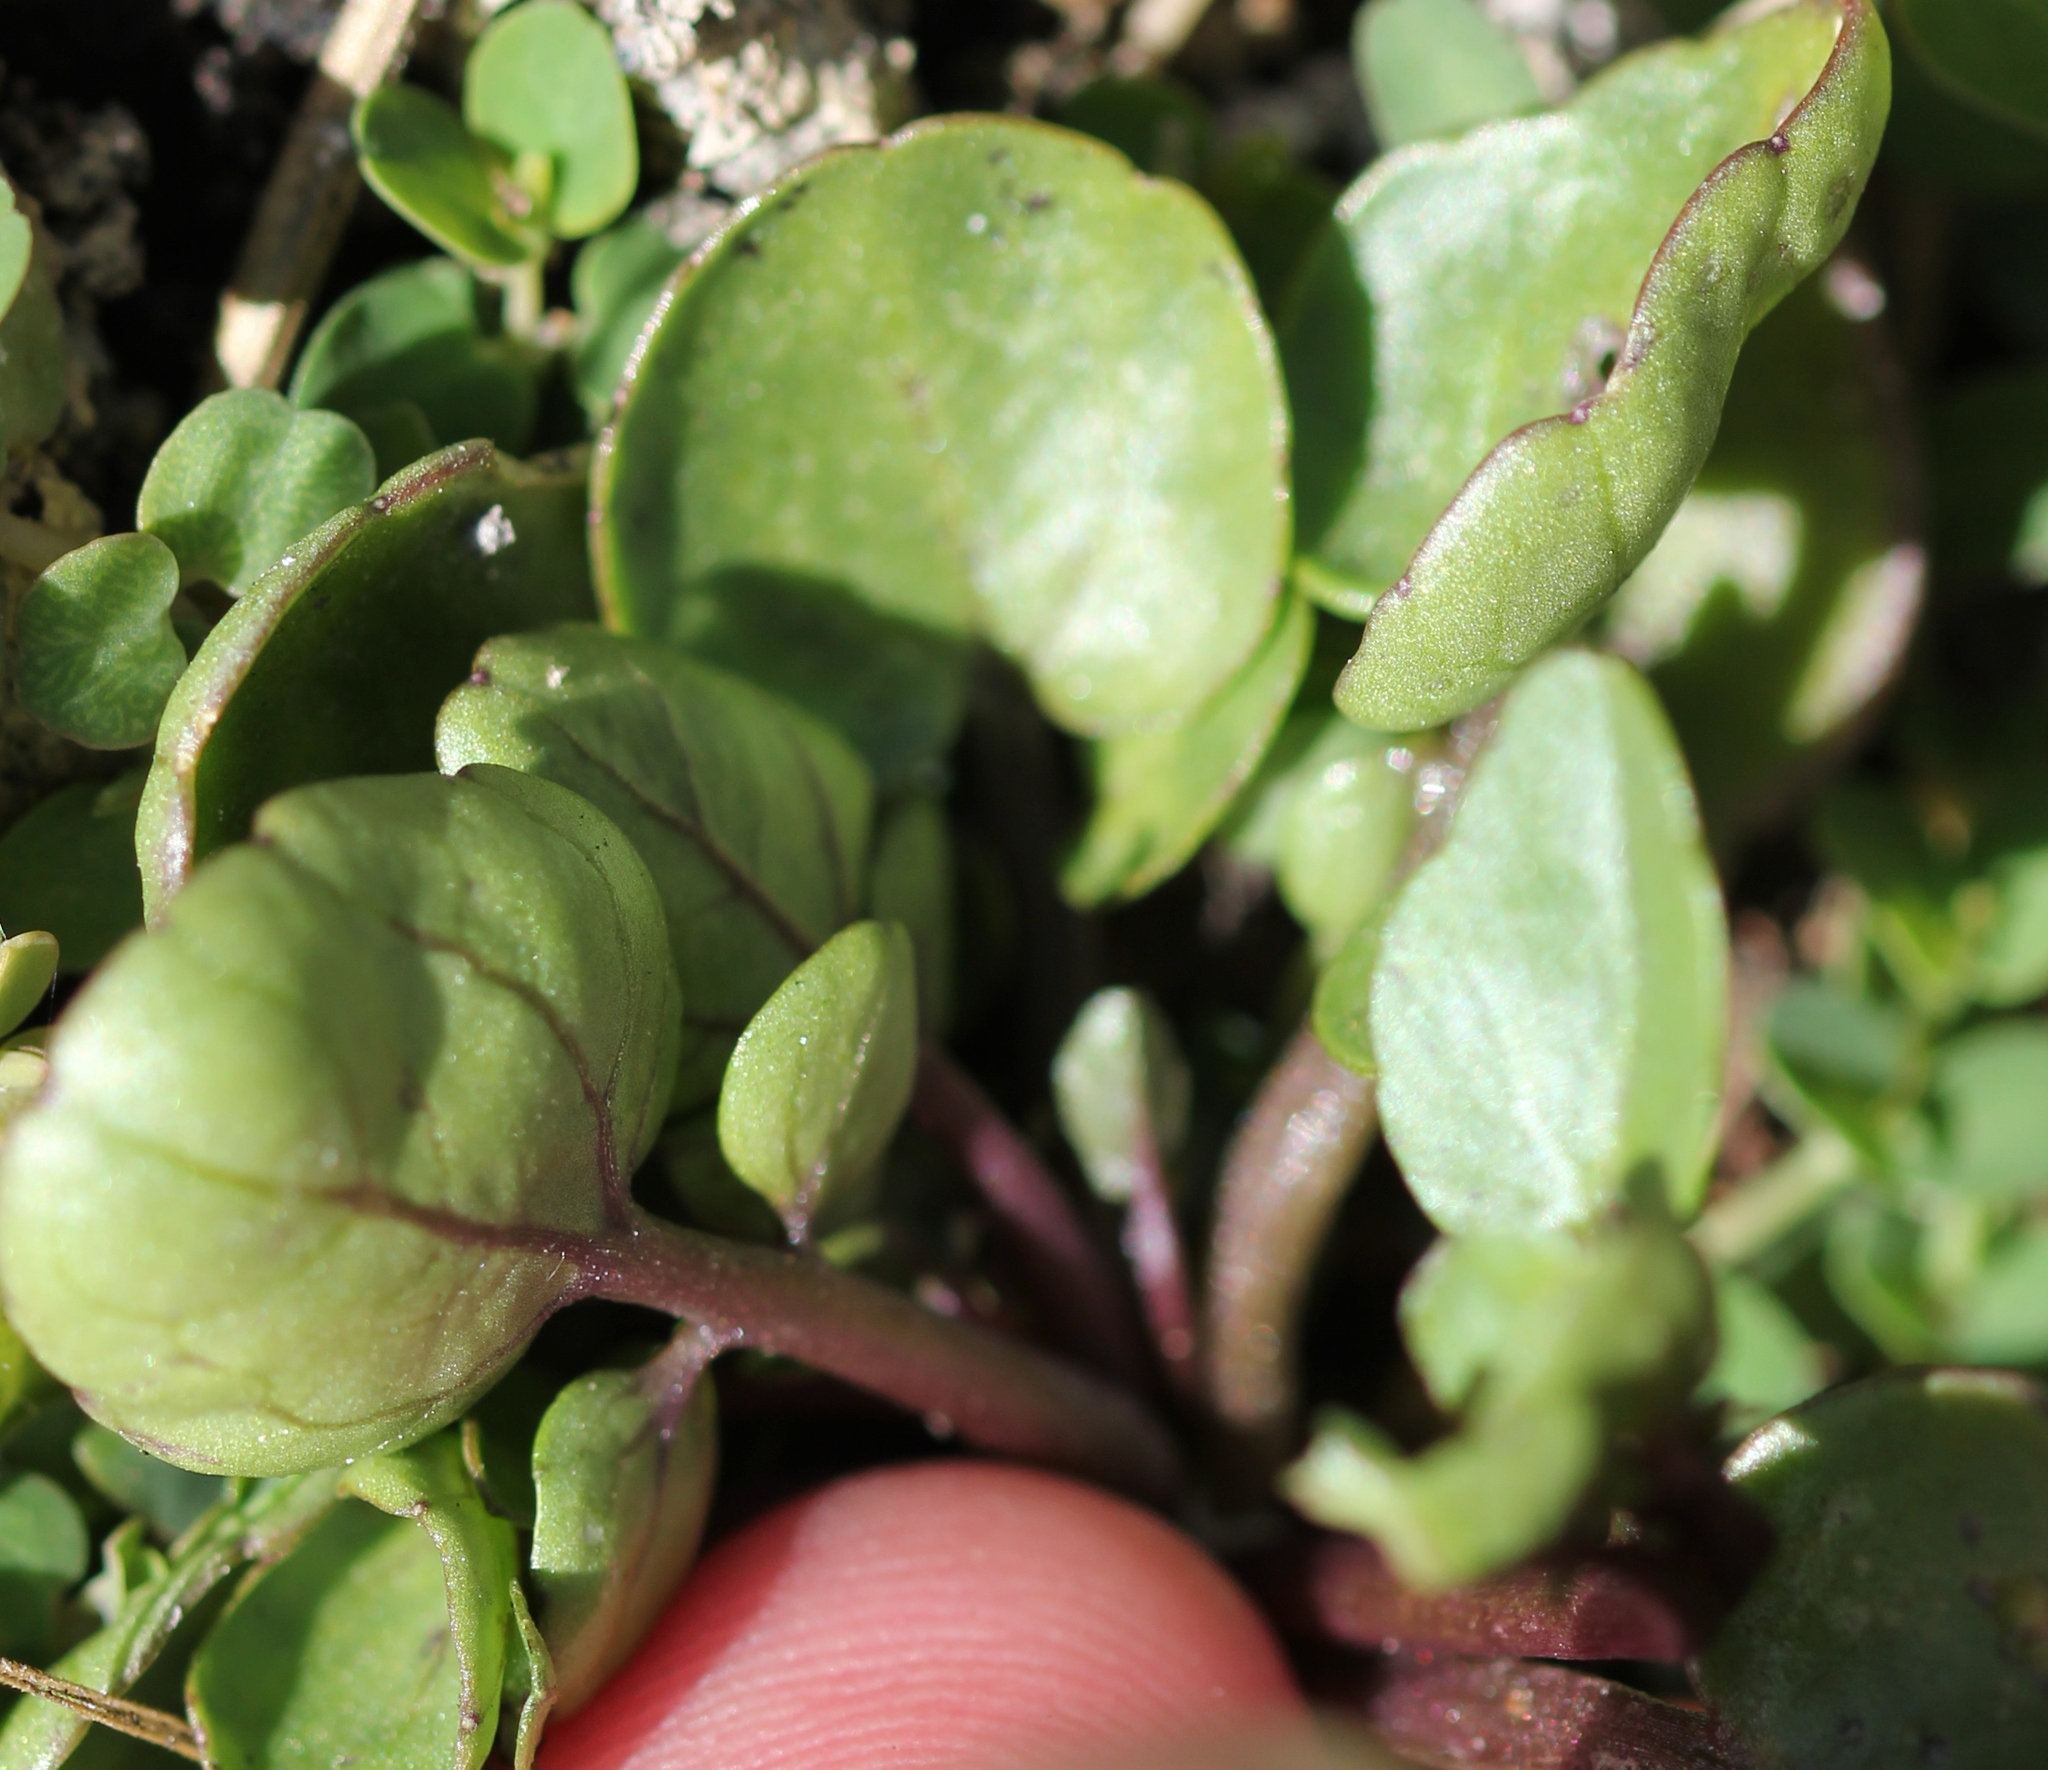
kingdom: Plantae
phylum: Tracheophyta
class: Magnoliopsida
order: Brassicales
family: Brassicaceae
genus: Nasturtium
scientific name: Nasturtium officinale
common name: Watercress
